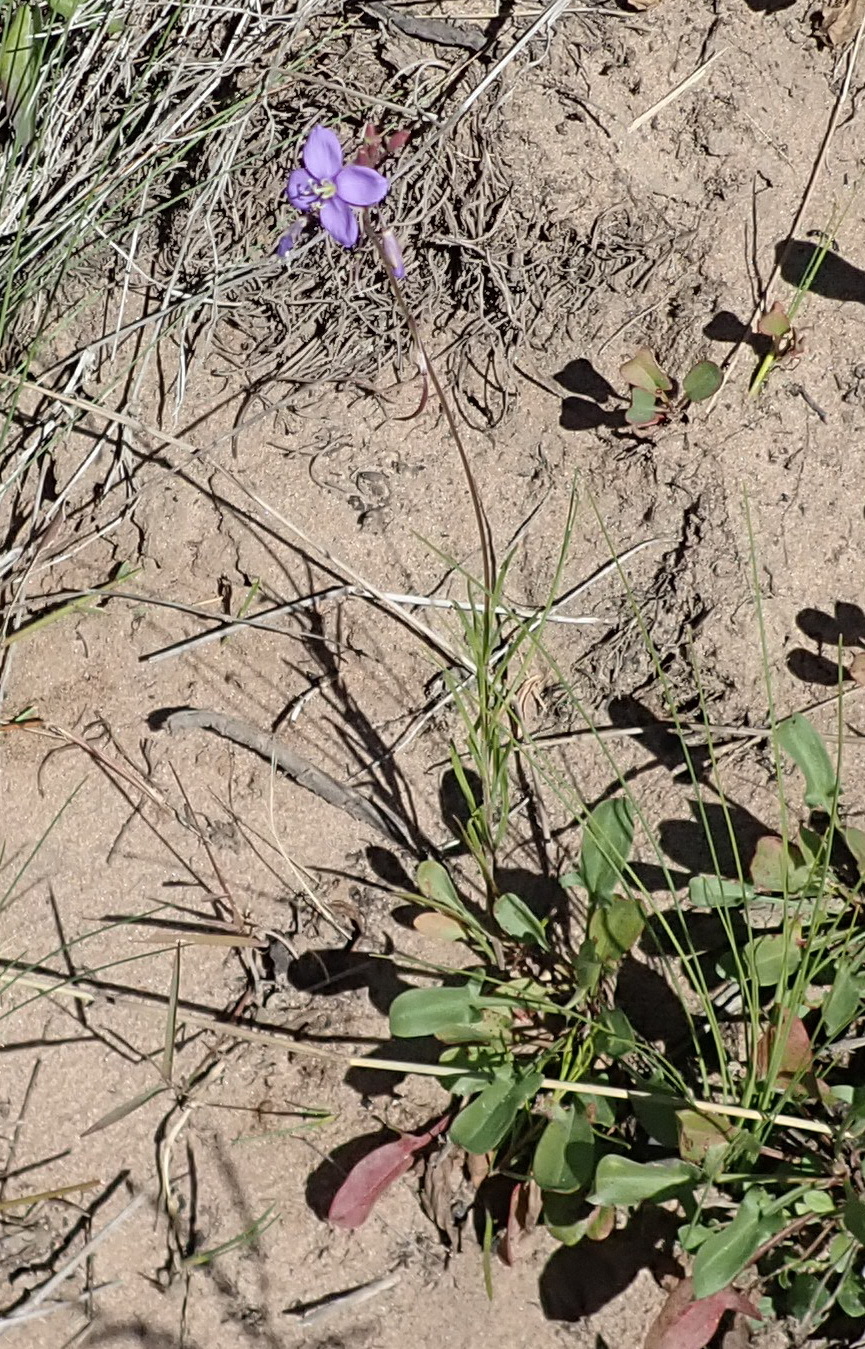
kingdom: Plantae
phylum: Tracheophyta
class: Magnoliopsida
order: Brassicales
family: Brassicaceae
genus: Heliophila
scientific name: Heliophila subulata
